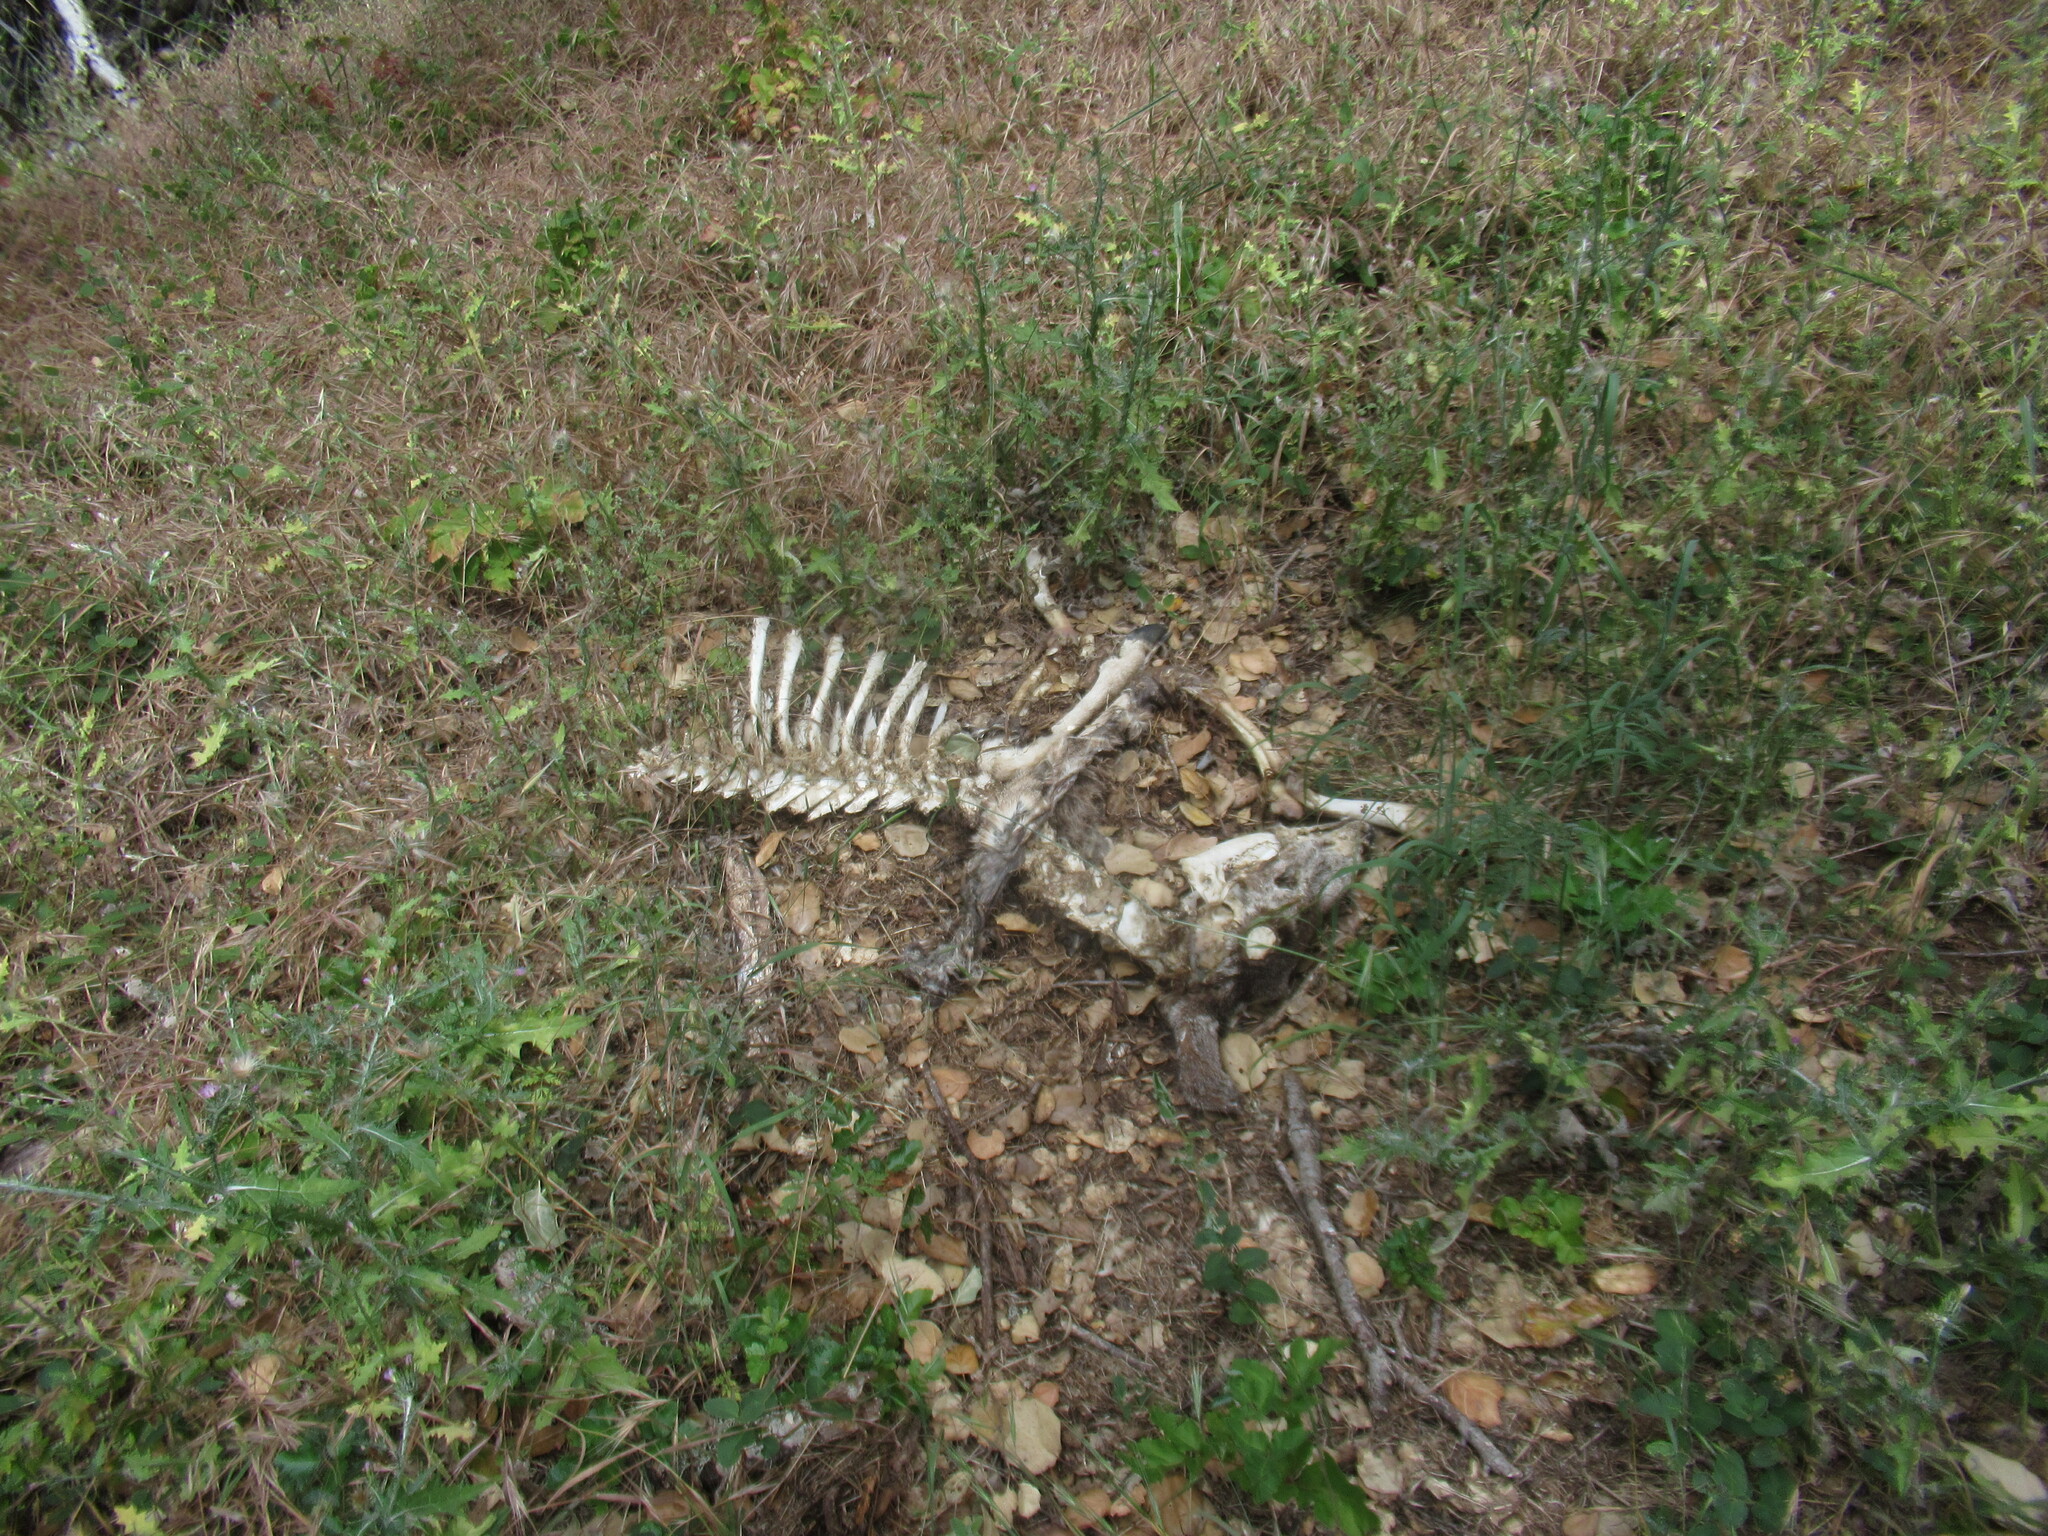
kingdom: Animalia
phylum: Chordata
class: Mammalia
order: Artiodactyla
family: Cervidae
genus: Odocoileus
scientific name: Odocoileus hemionus
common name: Mule deer
